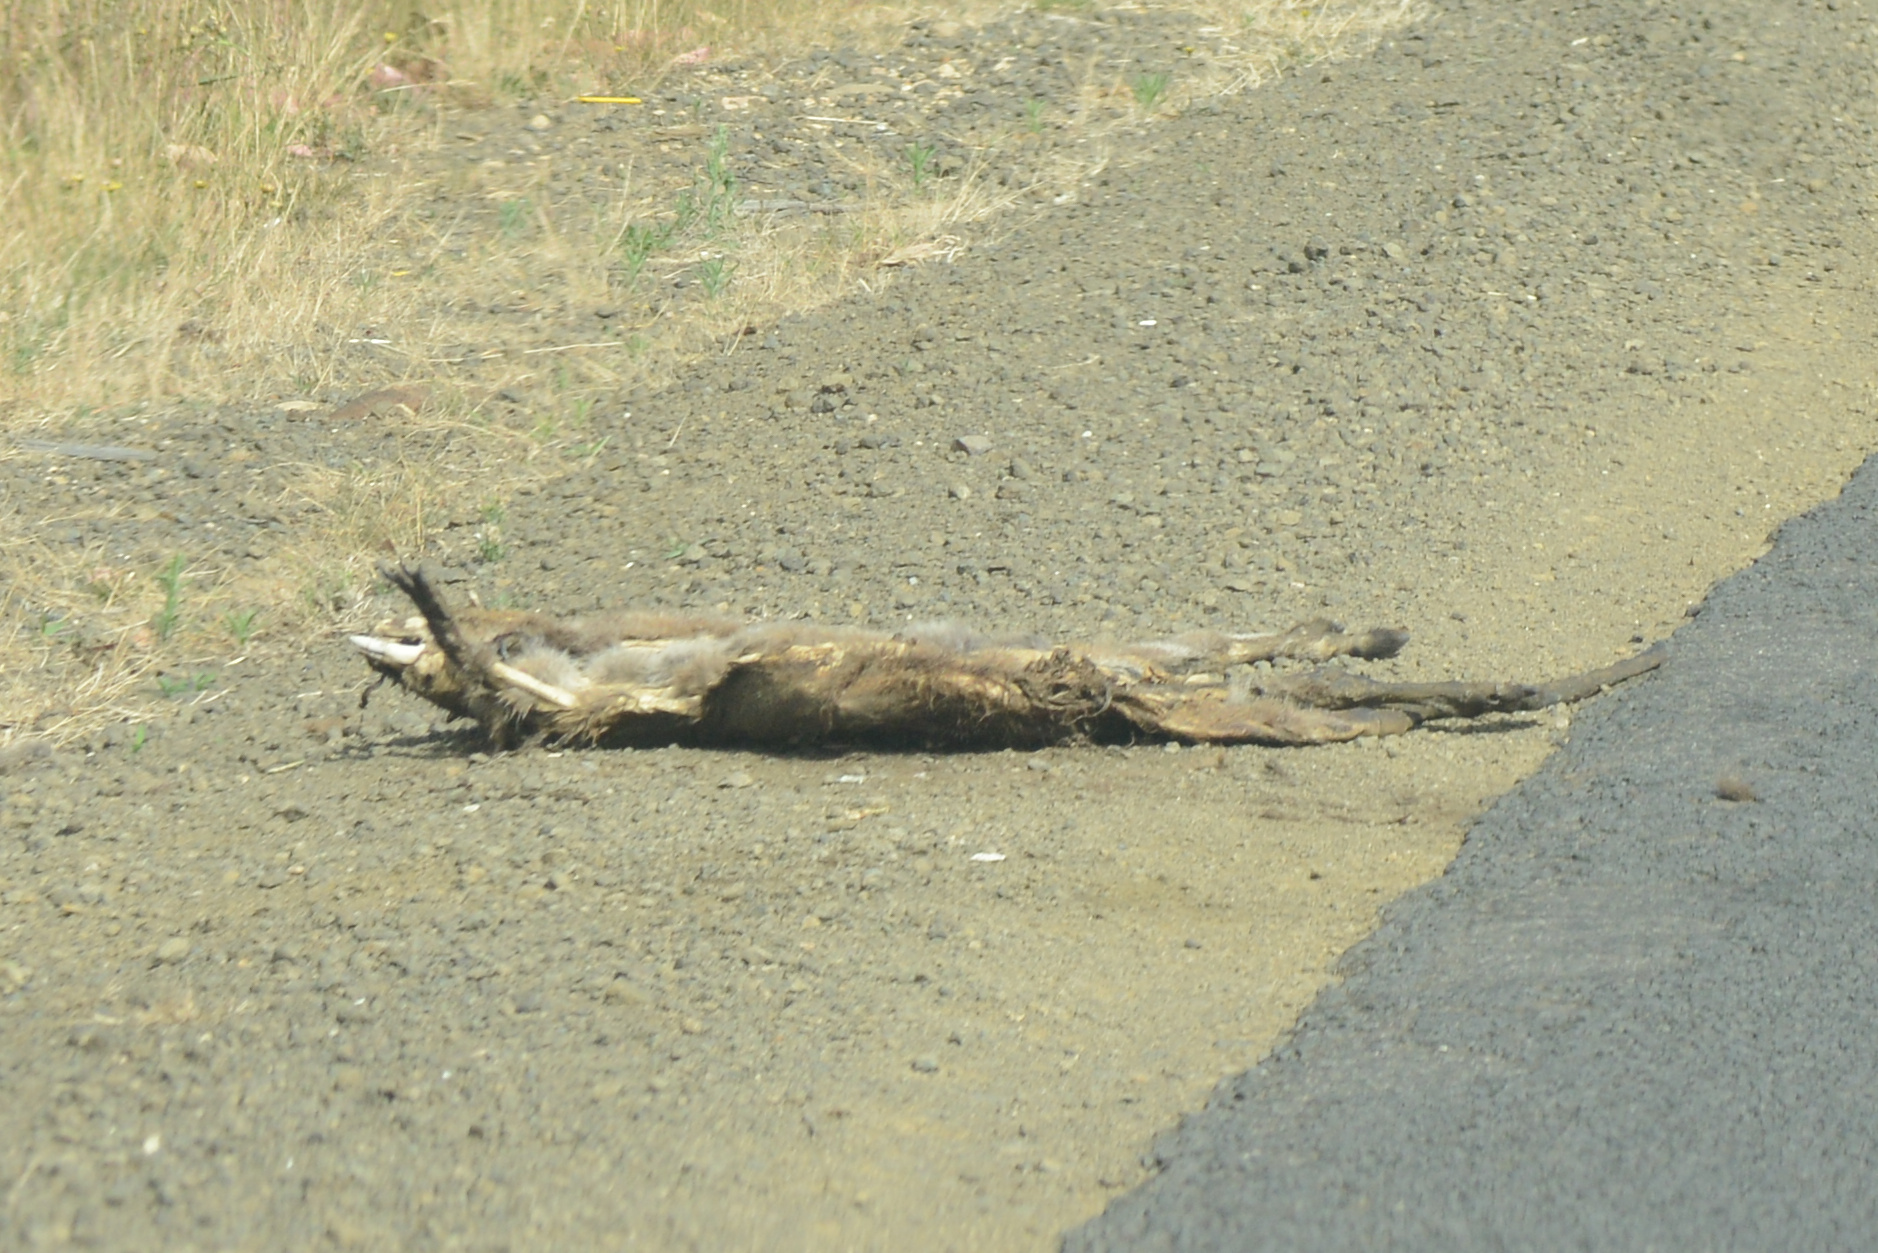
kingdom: Animalia
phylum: Chordata
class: Mammalia
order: Diprotodontia
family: Macropodidae
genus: Notamacropus
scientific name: Notamacropus rufogriseus
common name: Red-necked wallaby
